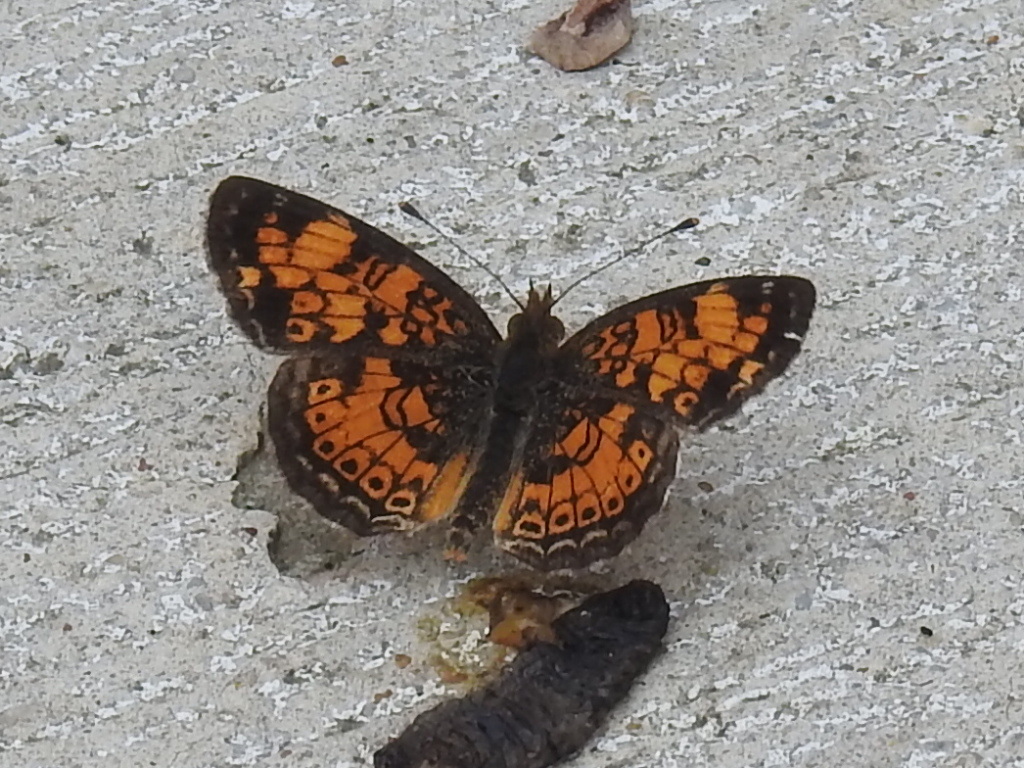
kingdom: Animalia
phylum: Arthropoda
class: Insecta
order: Lepidoptera
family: Nymphalidae
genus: Phyciodes
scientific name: Phyciodes tharos
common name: Pearl crescent
